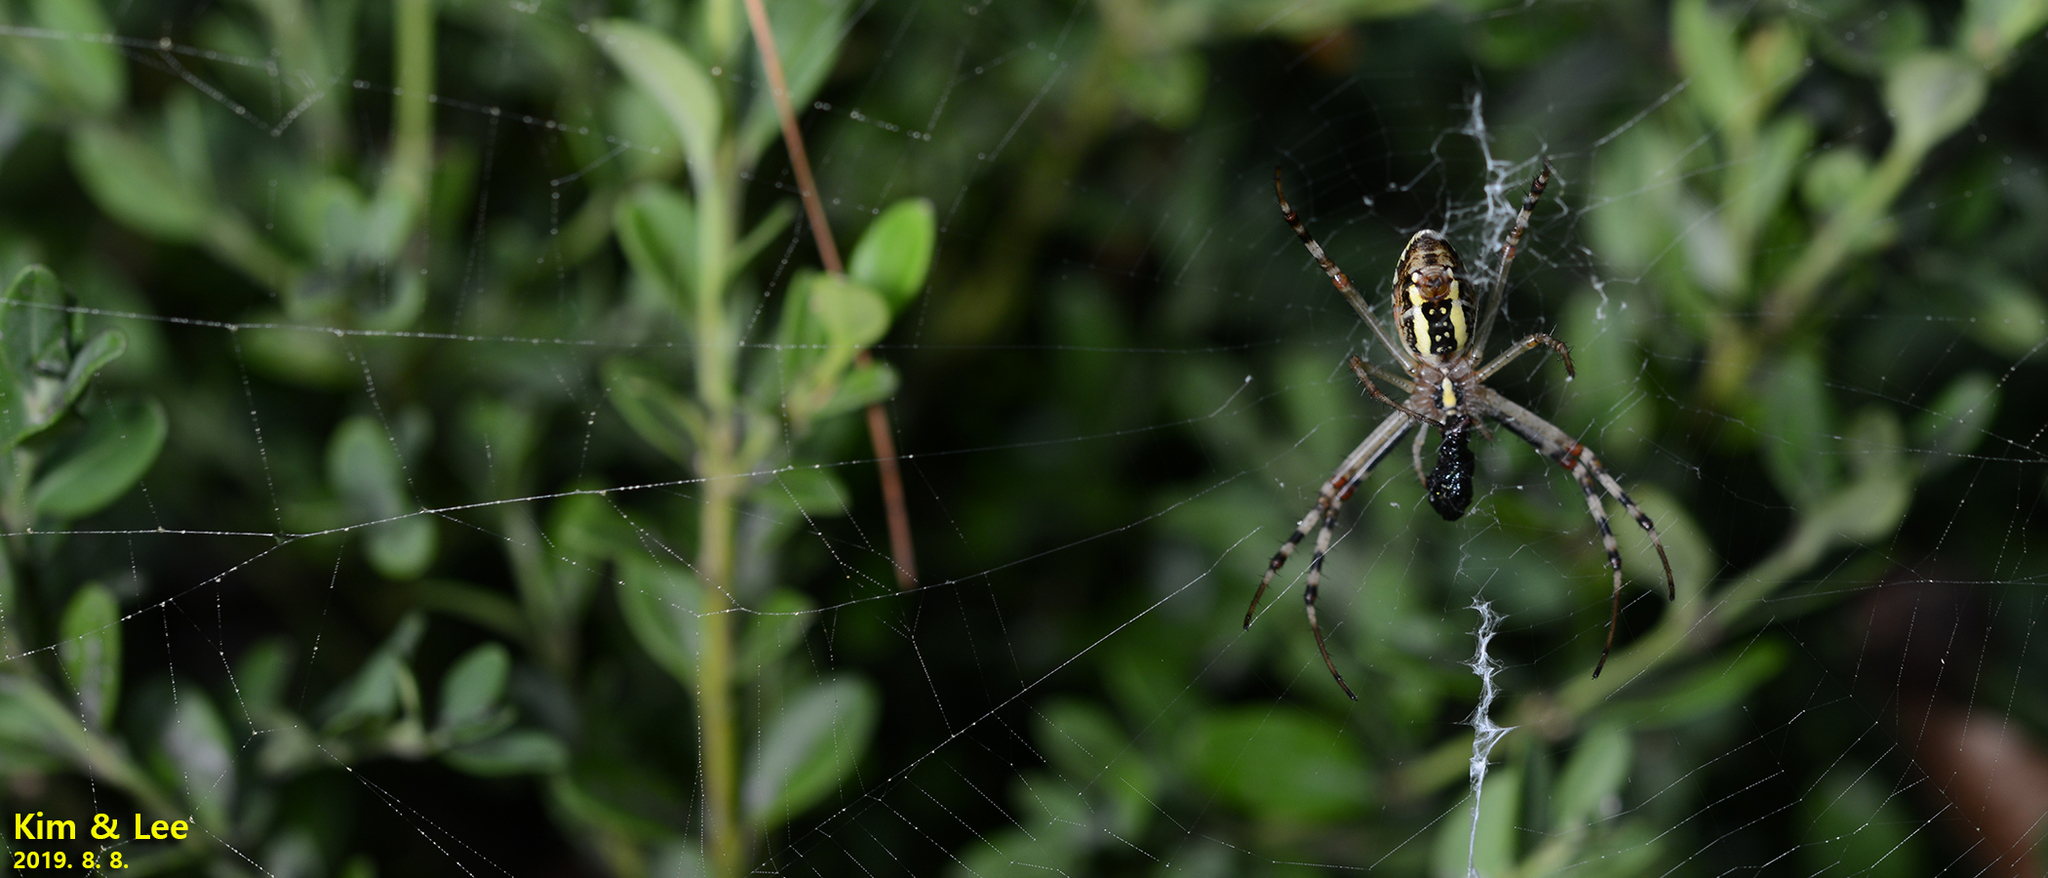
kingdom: Animalia
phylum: Arthropoda
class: Arachnida
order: Araneae
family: Araneidae
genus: Argiope
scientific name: Argiope bruennichi
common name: Wasp spider
